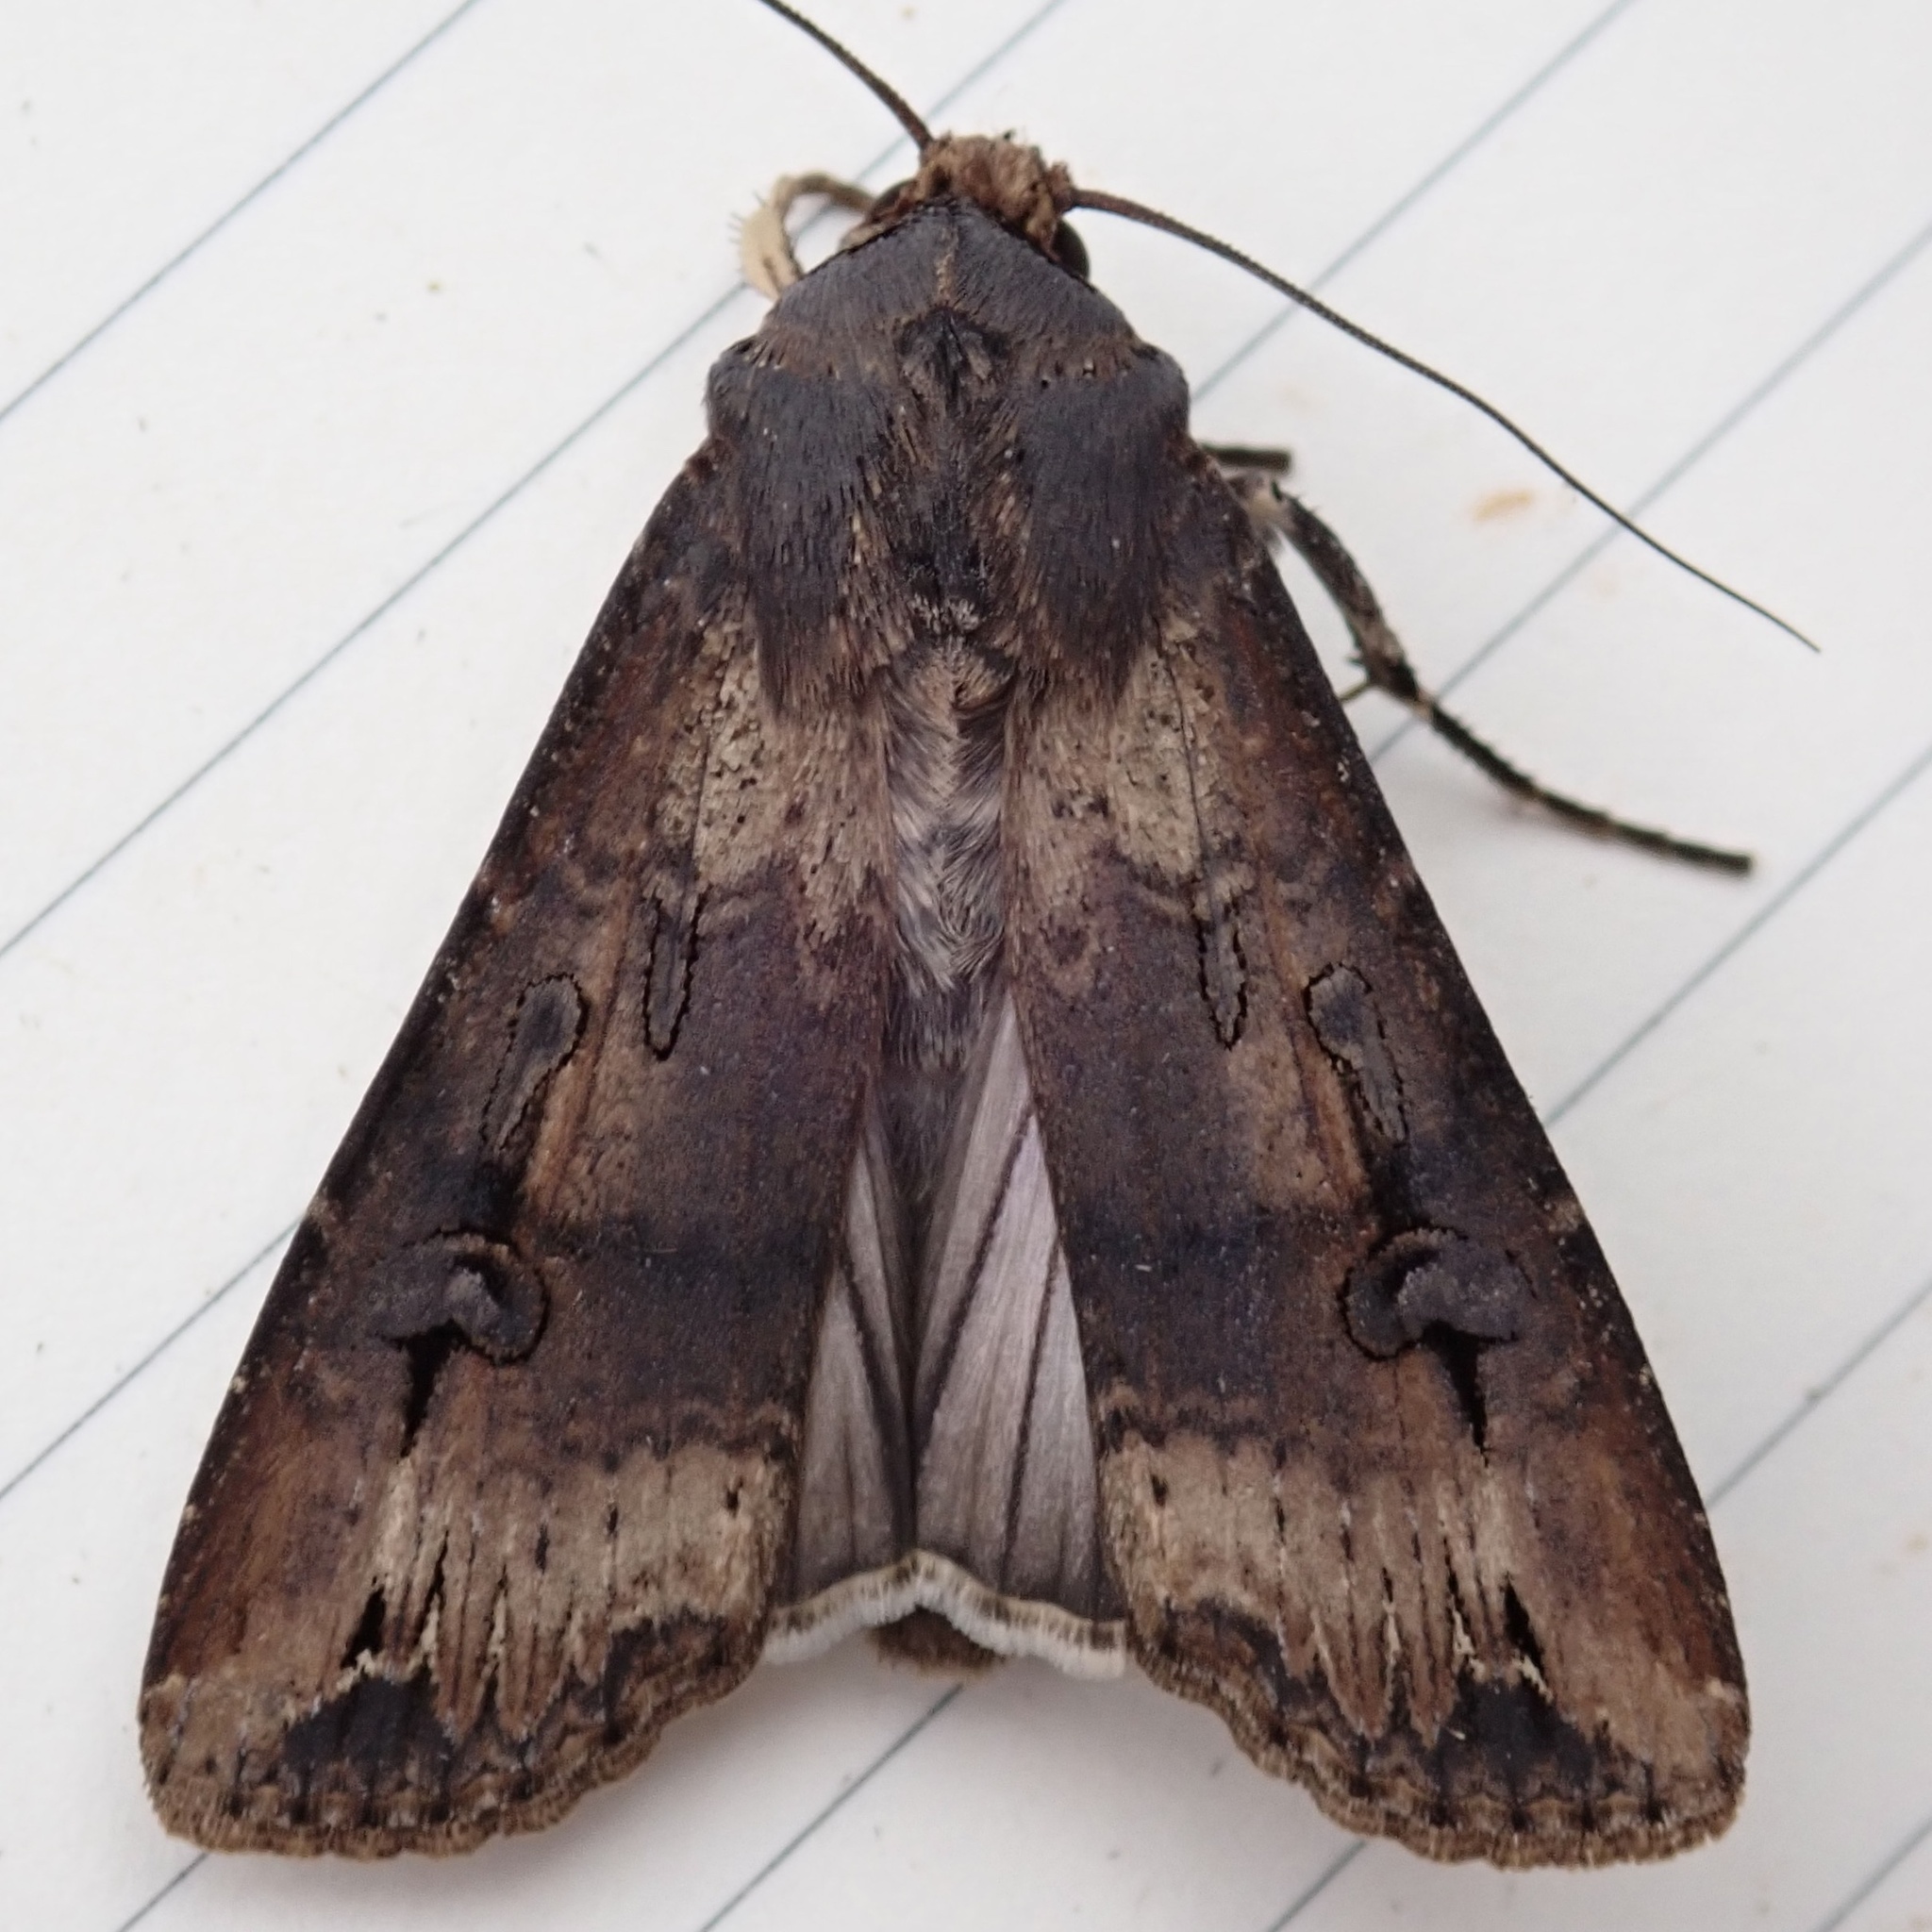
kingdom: Animalia
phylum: Arthropoda
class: Insecta
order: Lepidoptera
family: Noctuidae
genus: Agrotis
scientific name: Agrotis ipsilon
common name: Dark sword-grass
